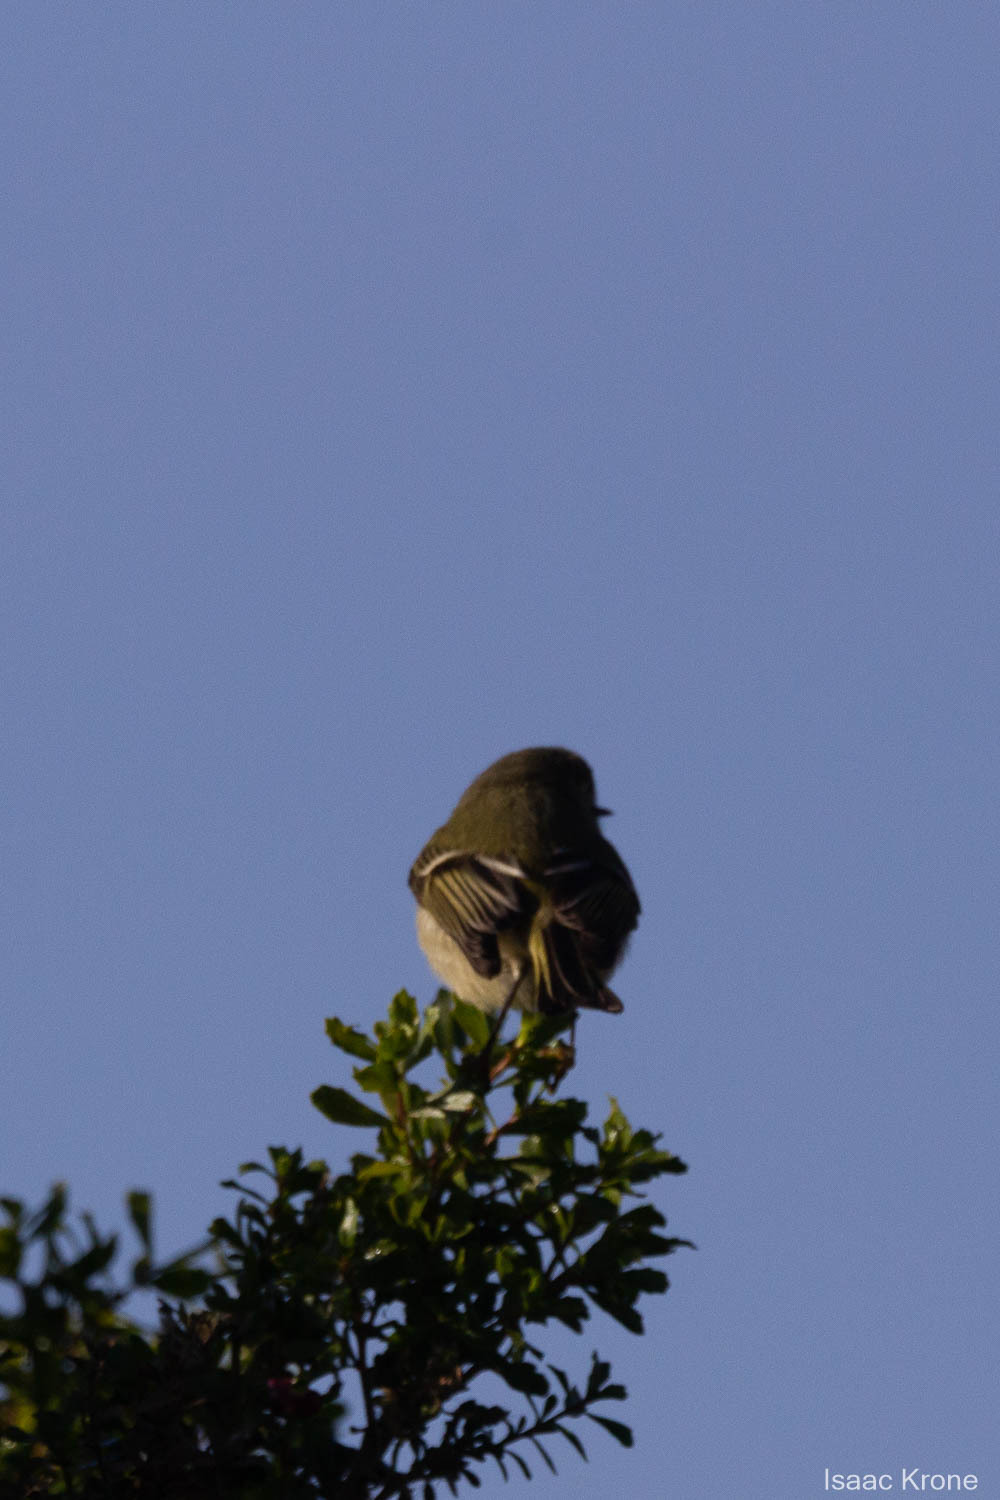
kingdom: Animalia
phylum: Chordata
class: Aves
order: Passeriformes
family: Regulidae
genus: Regulus
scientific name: Regulus calendula
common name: Ruby-crowned kinglet
